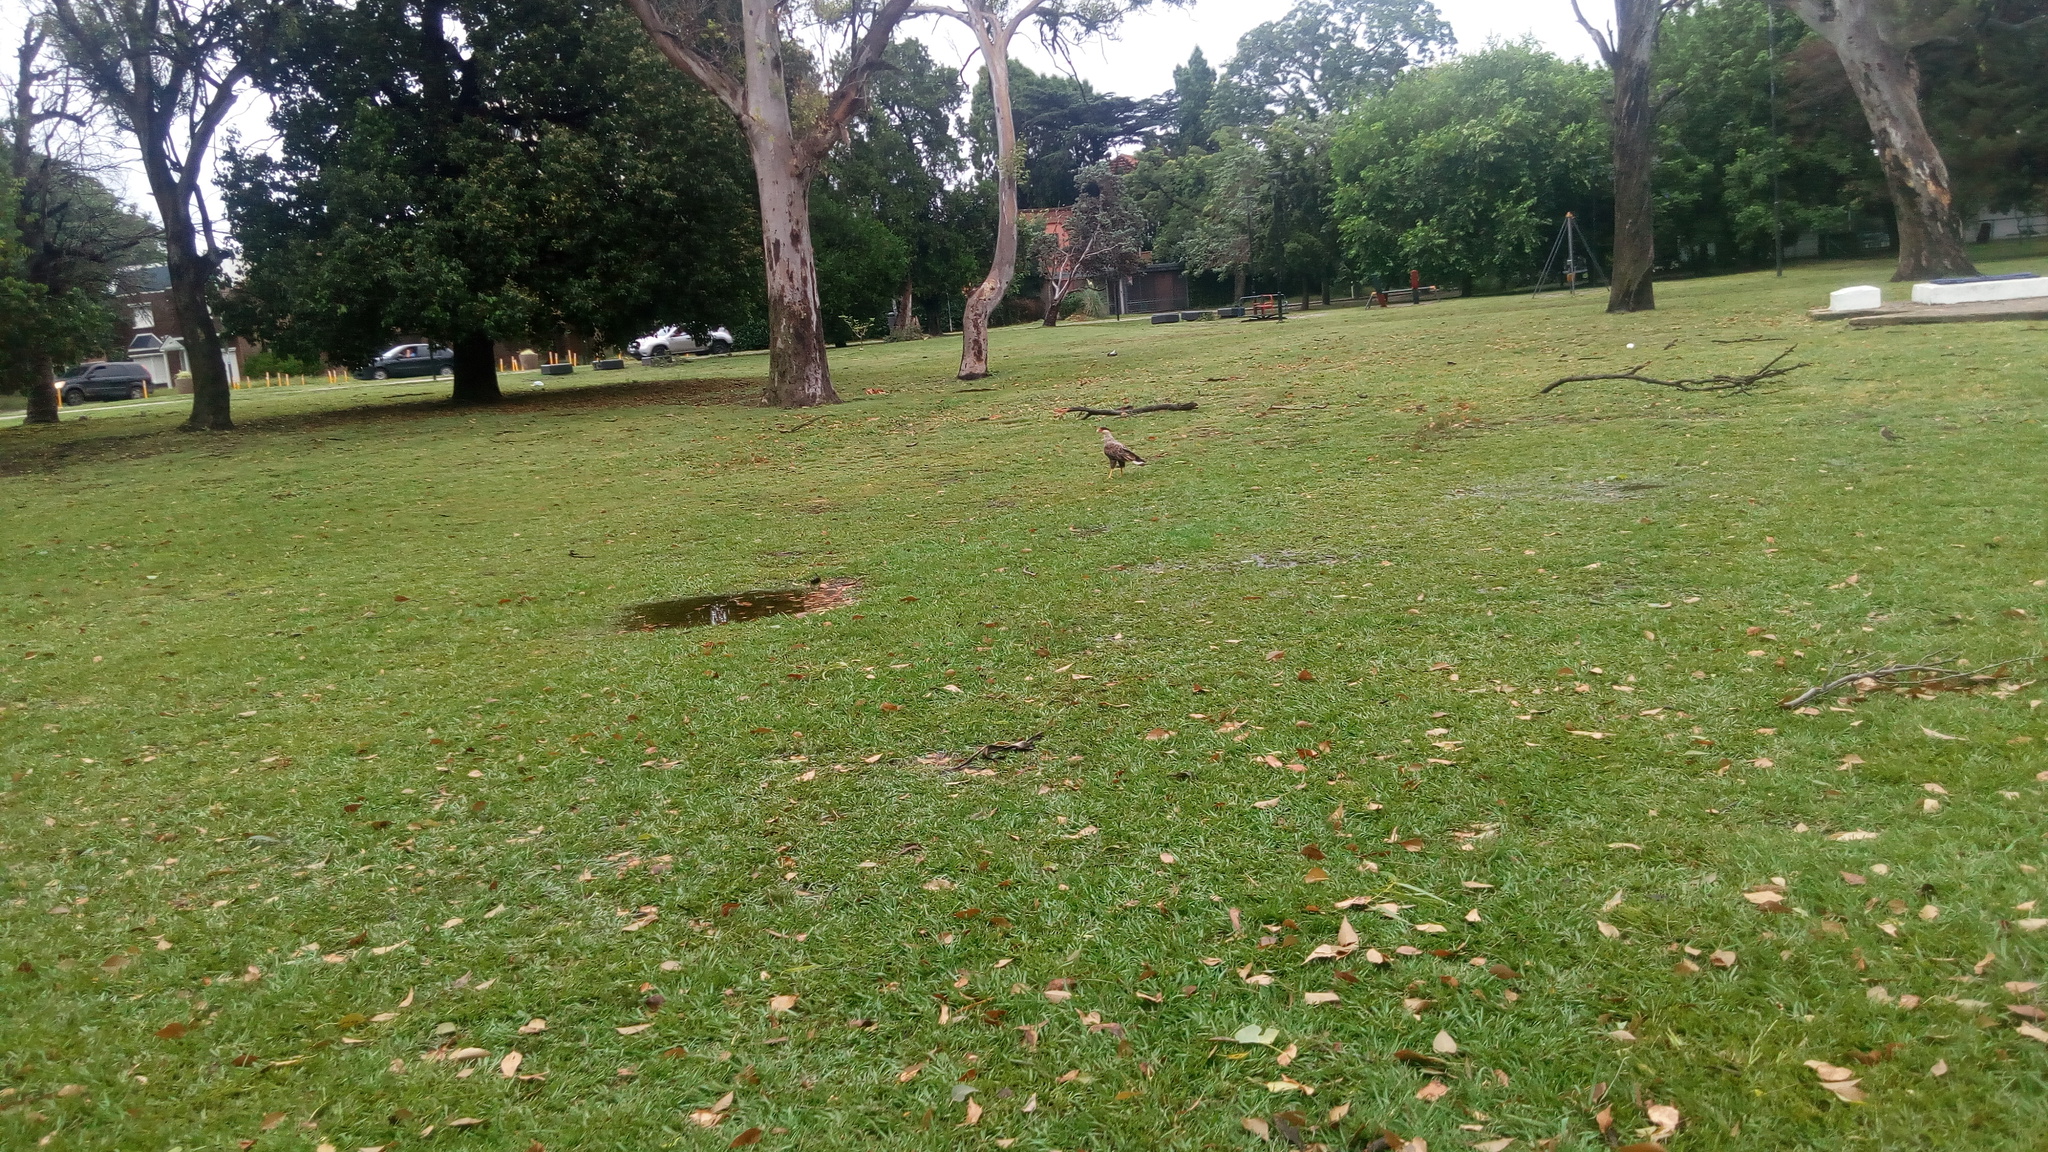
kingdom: Animalia
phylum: Chordata
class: Aves
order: Falconiformes
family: Falconidae
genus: Caracara
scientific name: Caracara plancus
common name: Southern caracara
